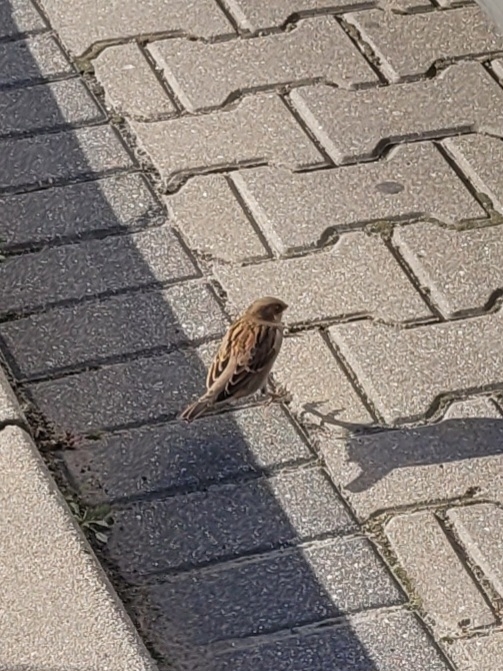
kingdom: Animalia
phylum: Chordata
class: Aves
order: Passeriformes
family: Passeridae
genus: Passer
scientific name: Passer domesticus
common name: House sparrow
